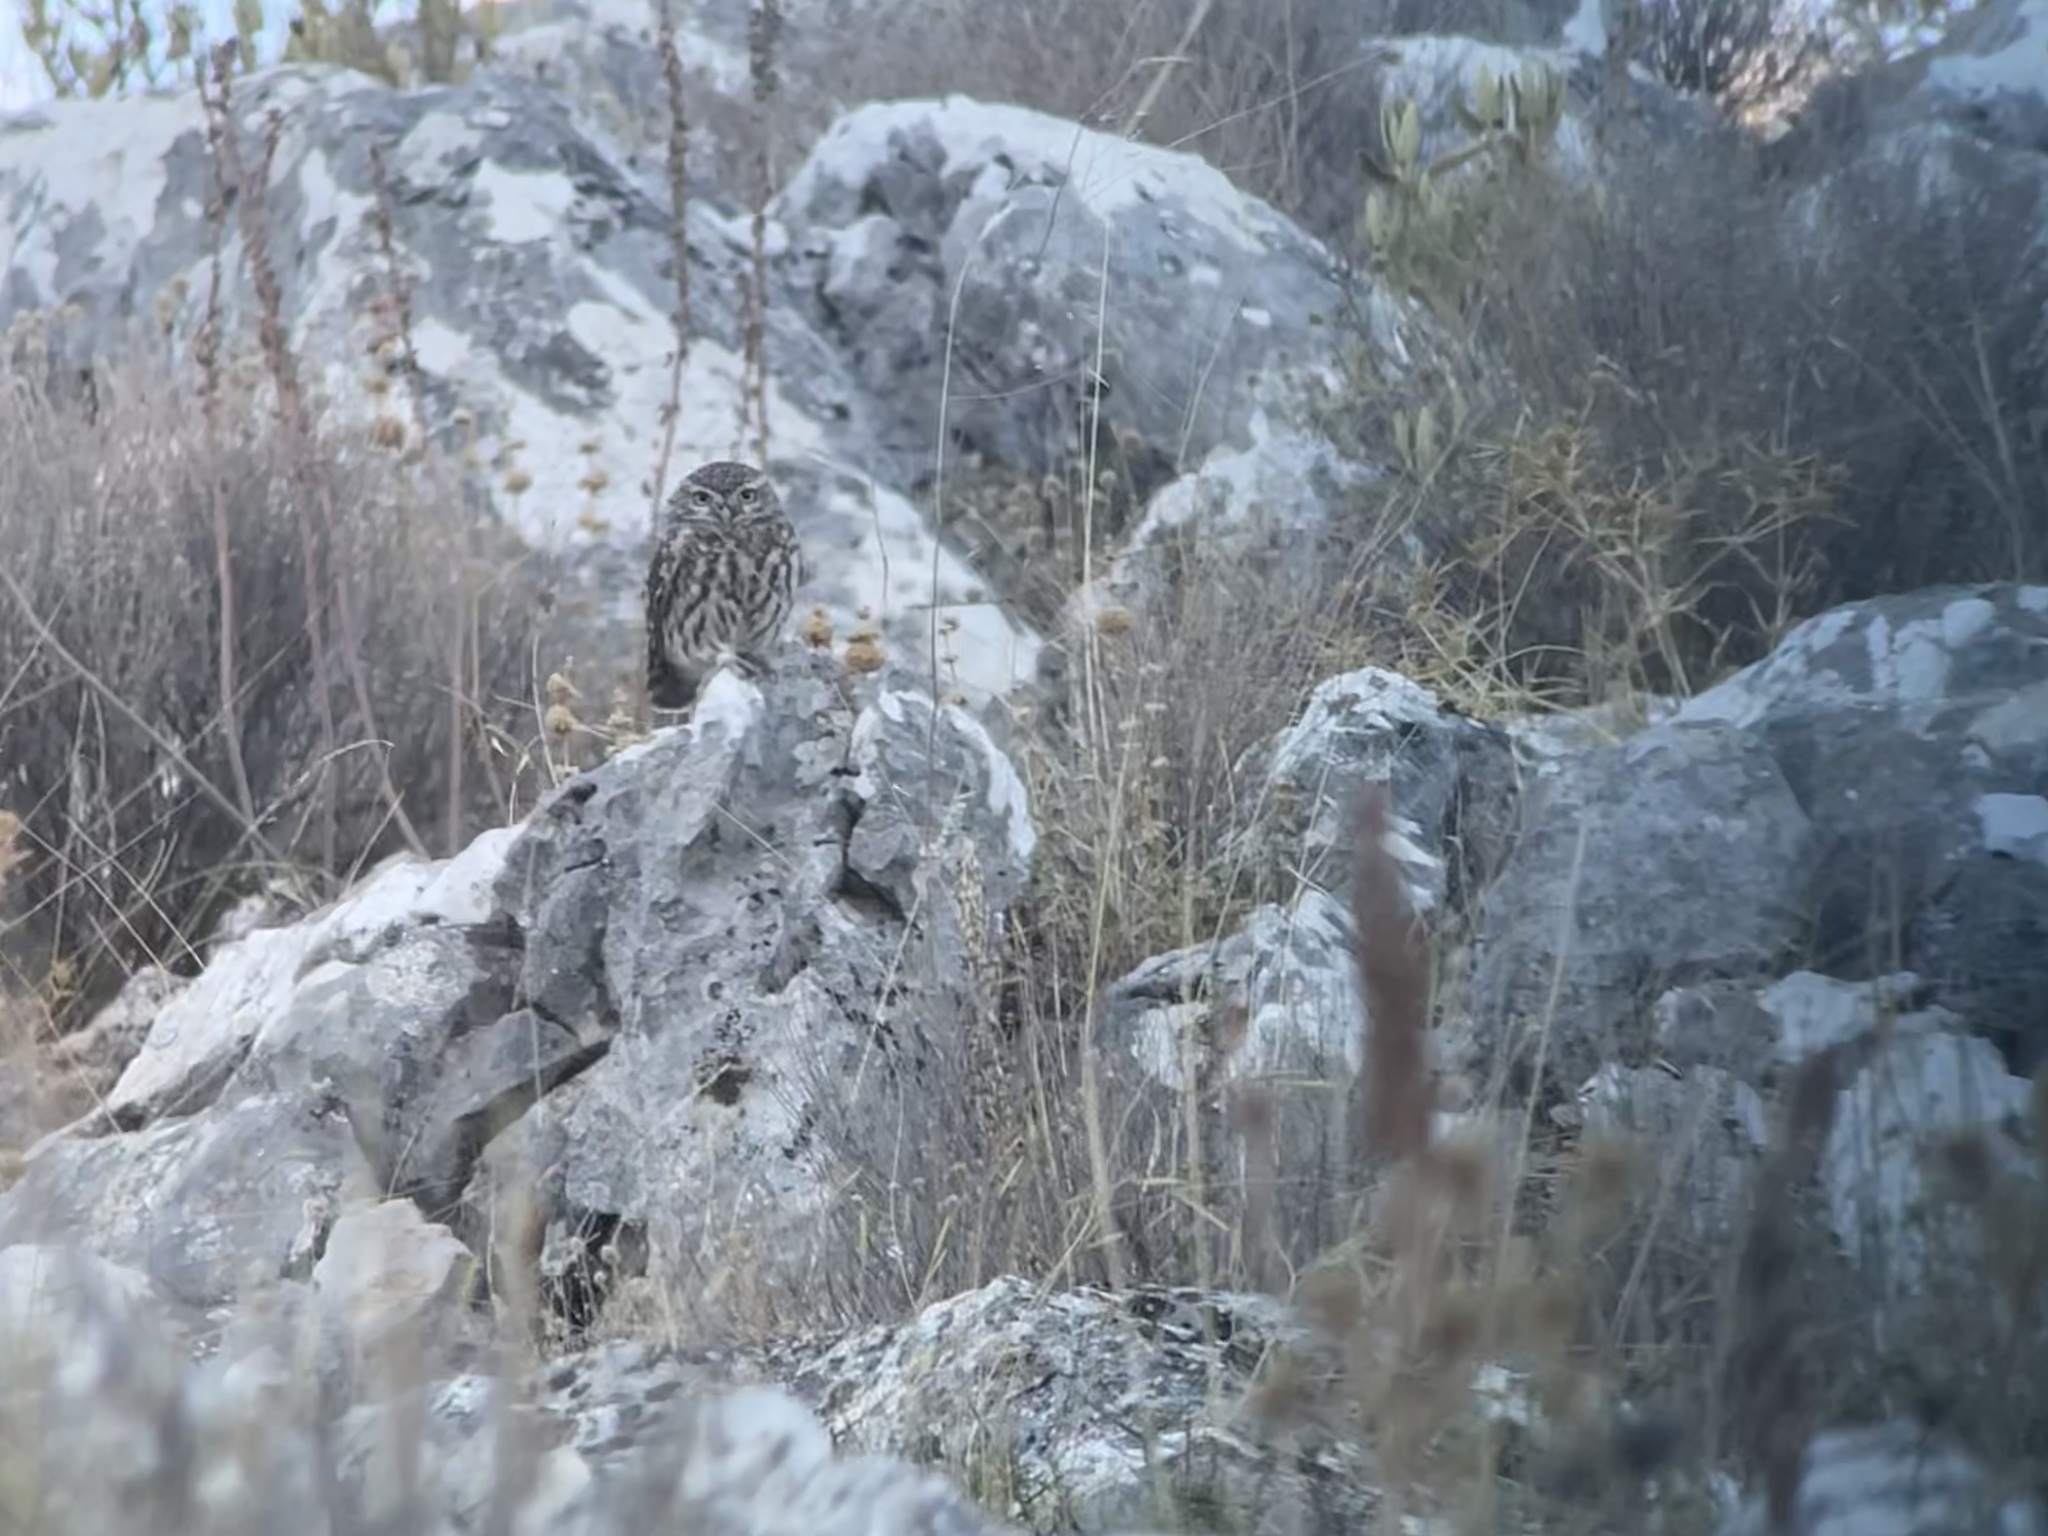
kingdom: Animalia
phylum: Chordata
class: Aves
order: Strigiformes
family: Strigidae
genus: Athene
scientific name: Athene noctua
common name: Little owl
